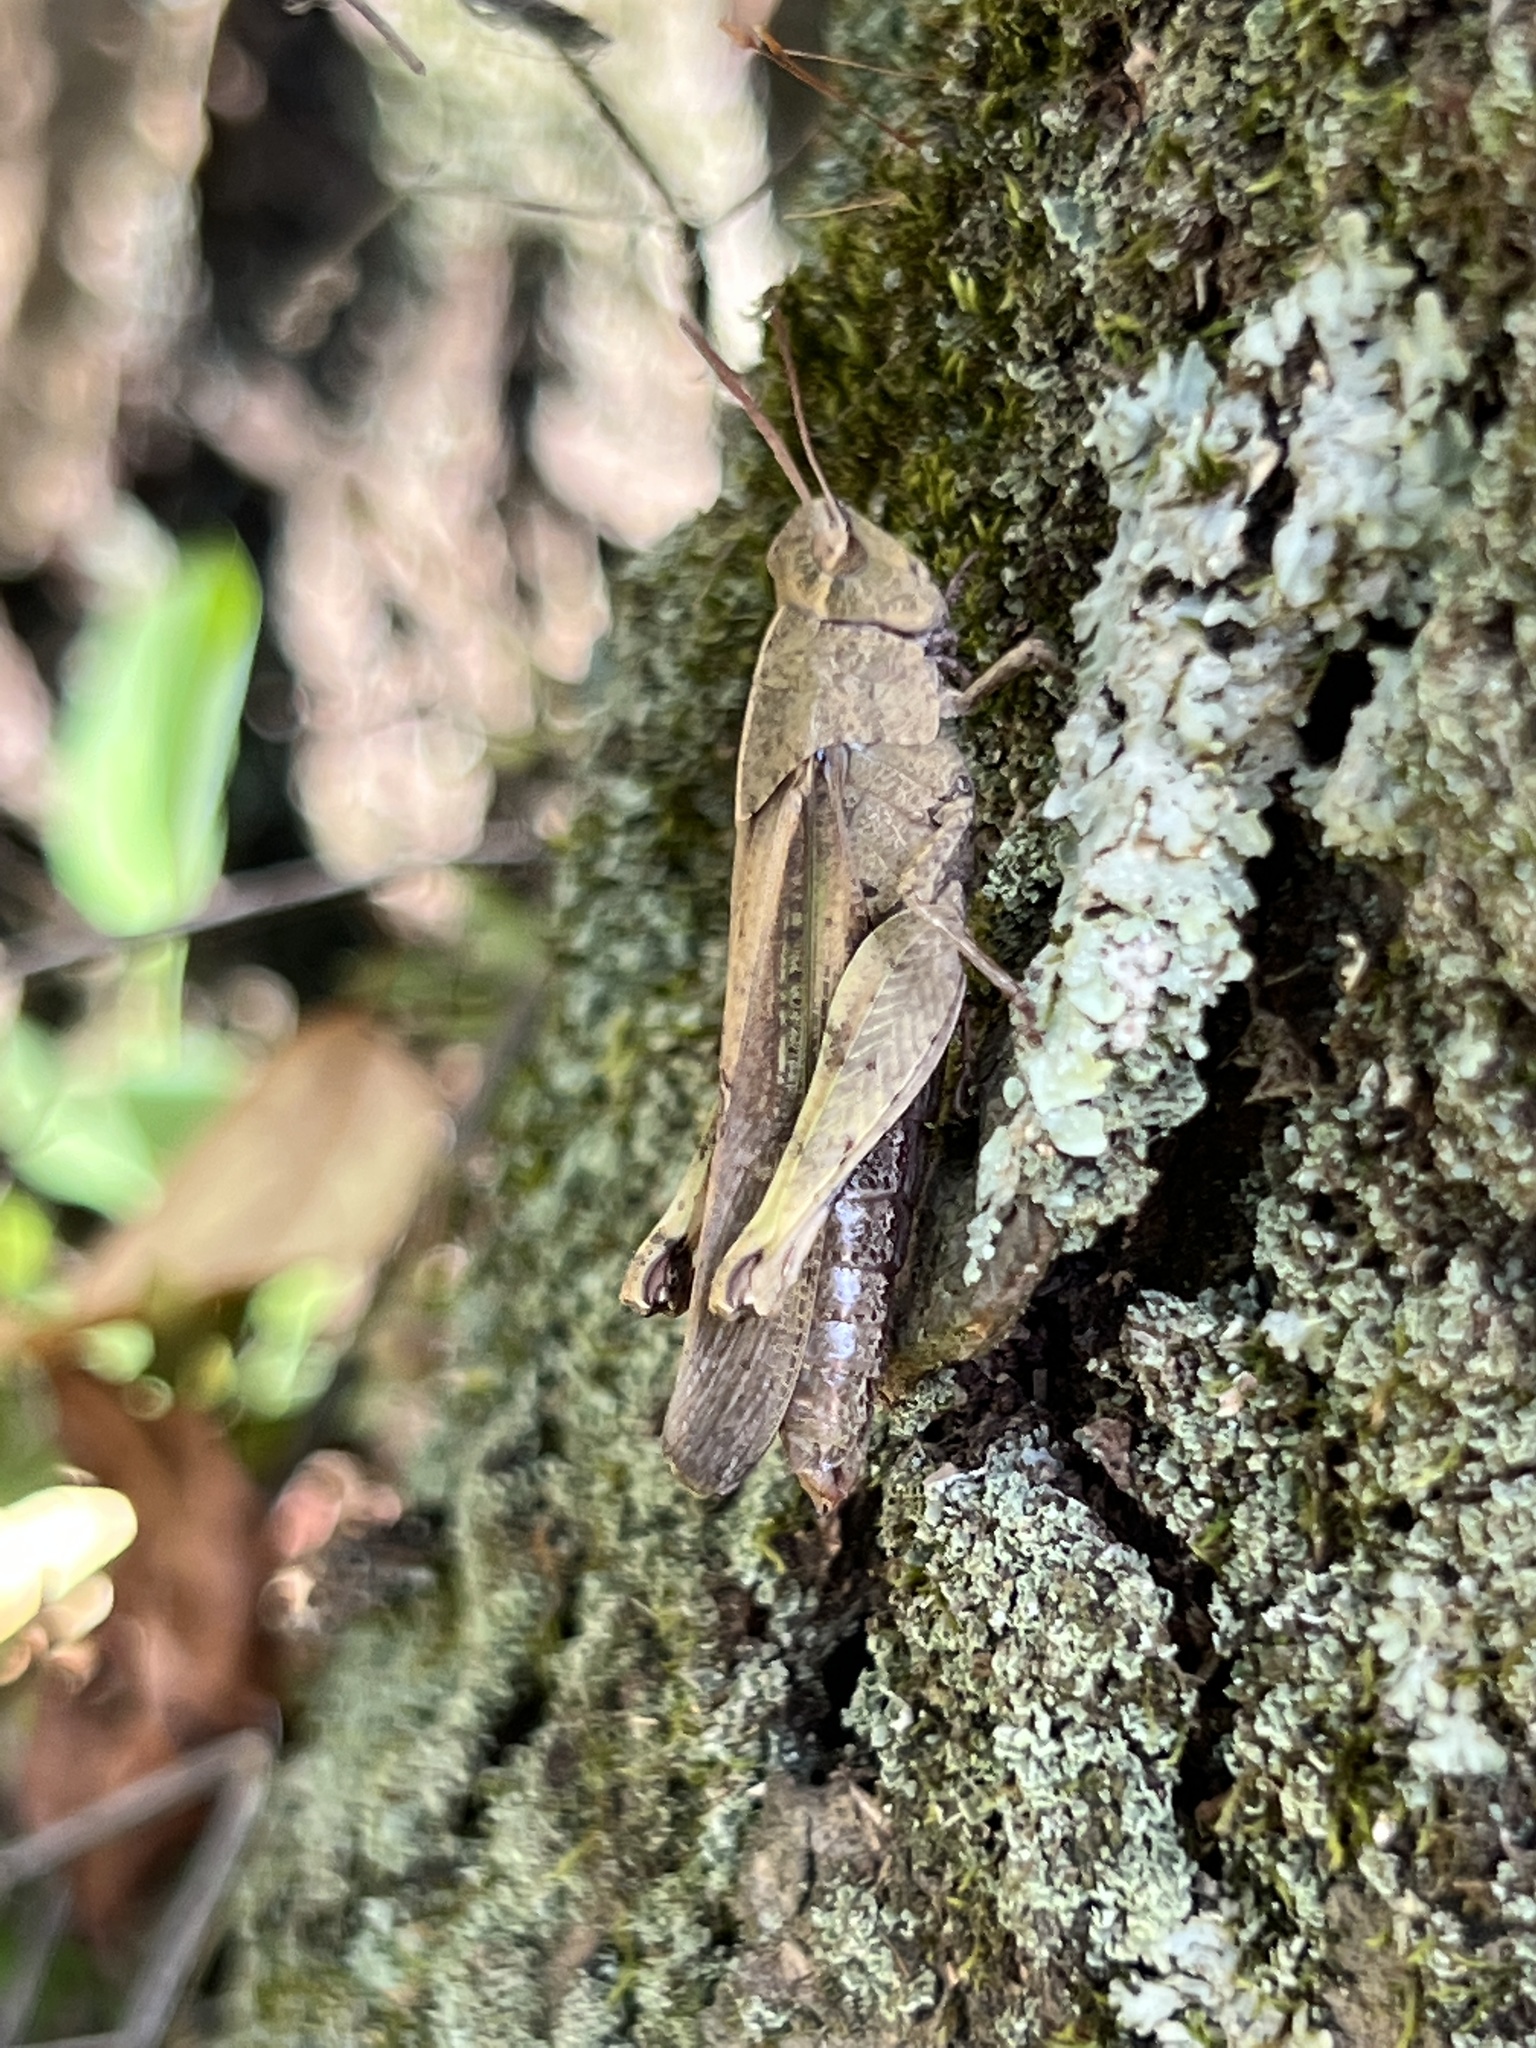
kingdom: Animalia
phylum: Arthropoda
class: Insecta
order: Orthoptera
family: Acrididae
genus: Chortophaga
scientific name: Chortophaga viridifasciata
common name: Green-striped grasshopper
